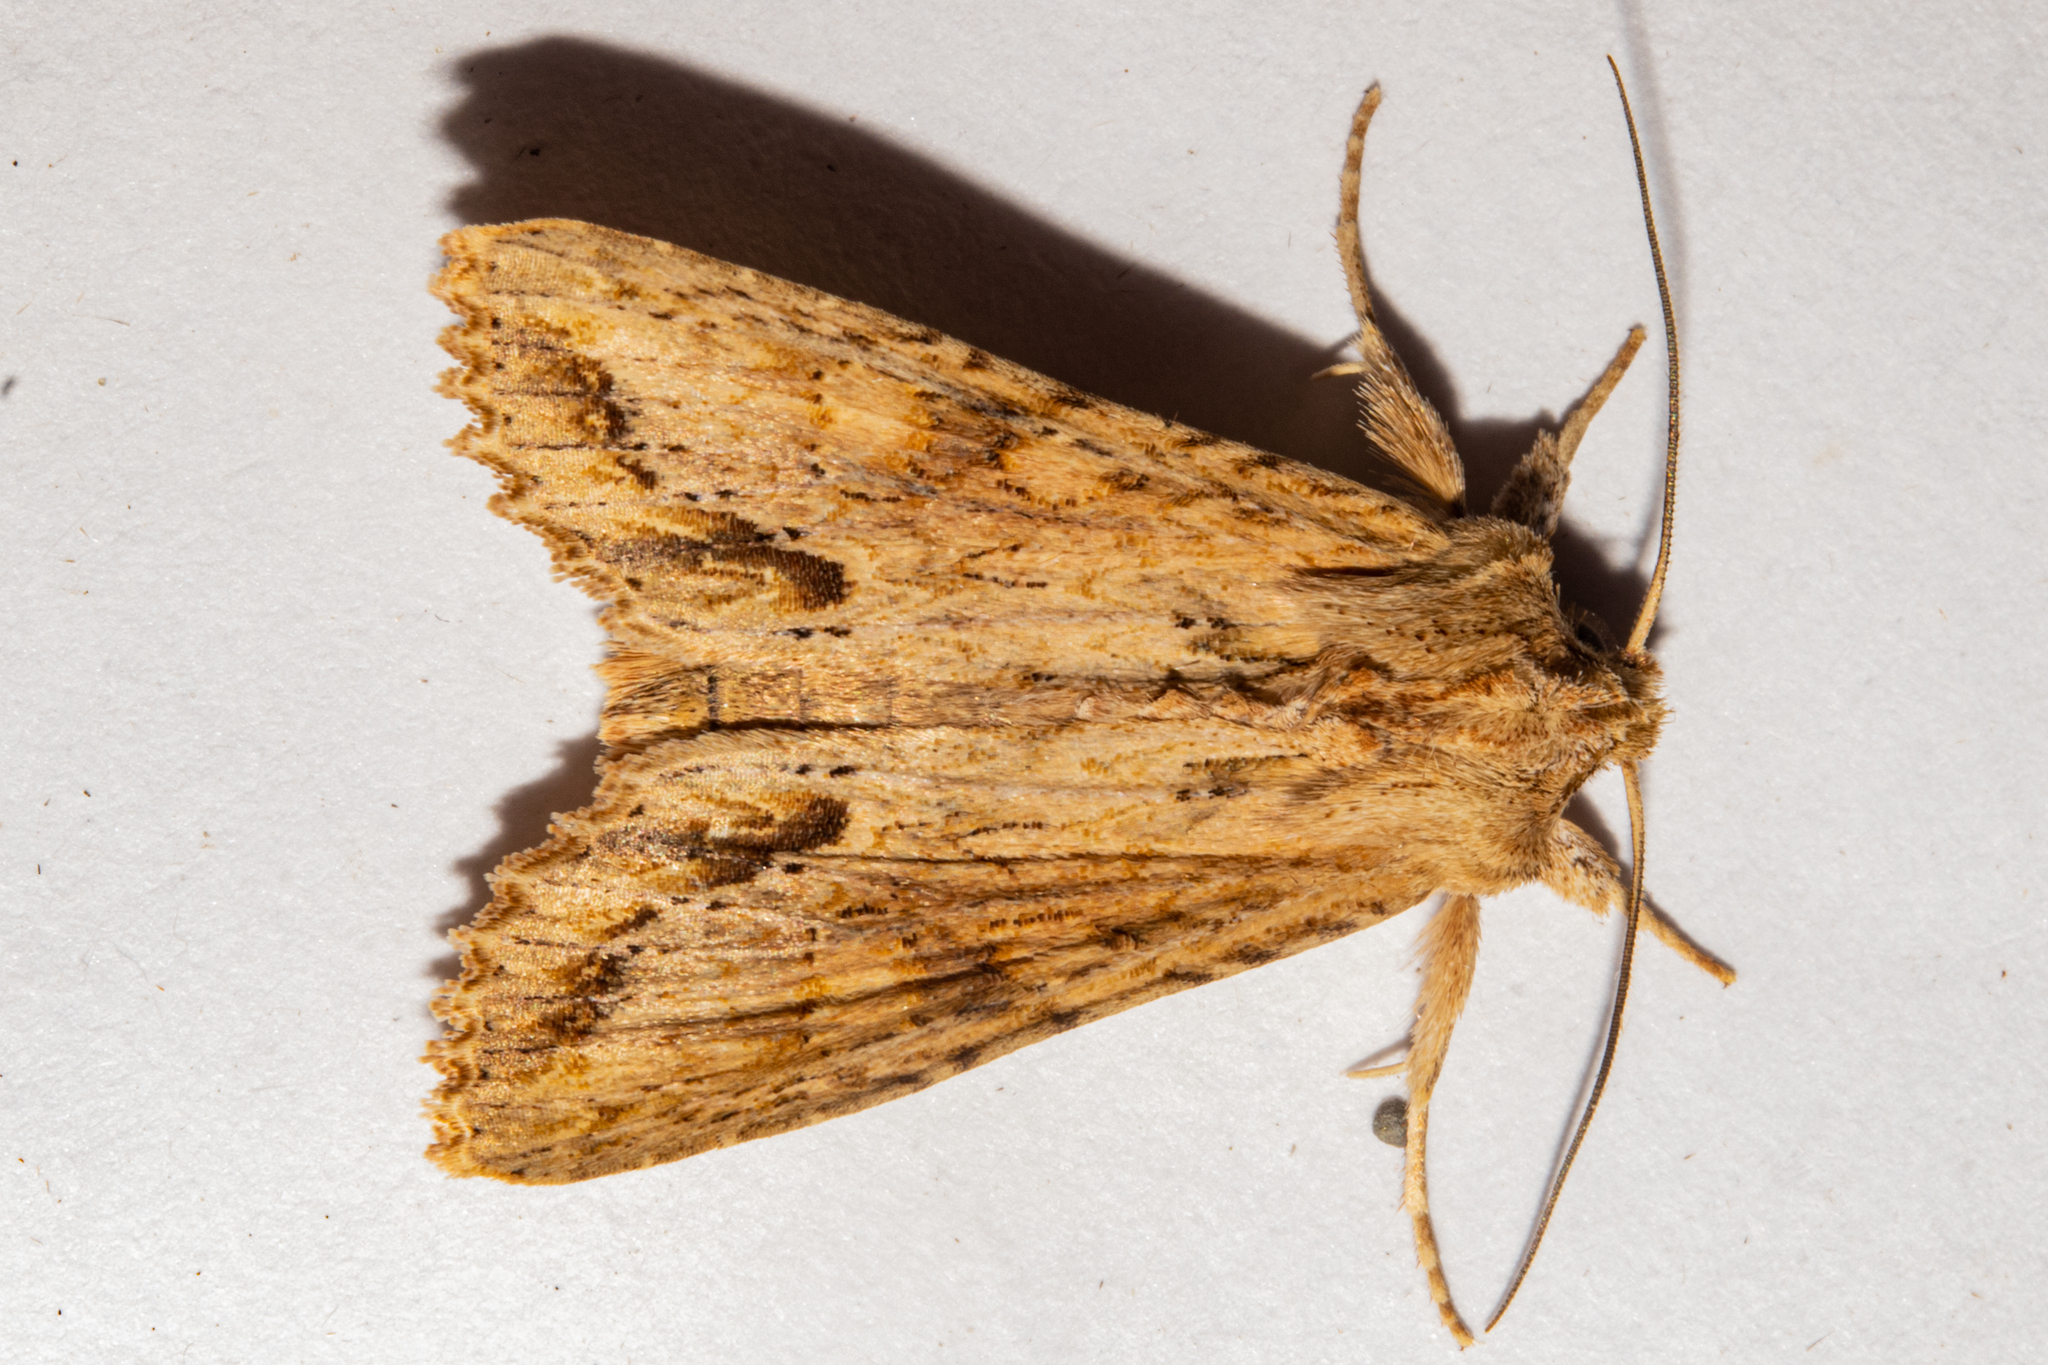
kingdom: Animalia
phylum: Arthropoda
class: Insecta
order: Lepidoptera
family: Noctuidae
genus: Ichneutica
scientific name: Ichneutica mollis
